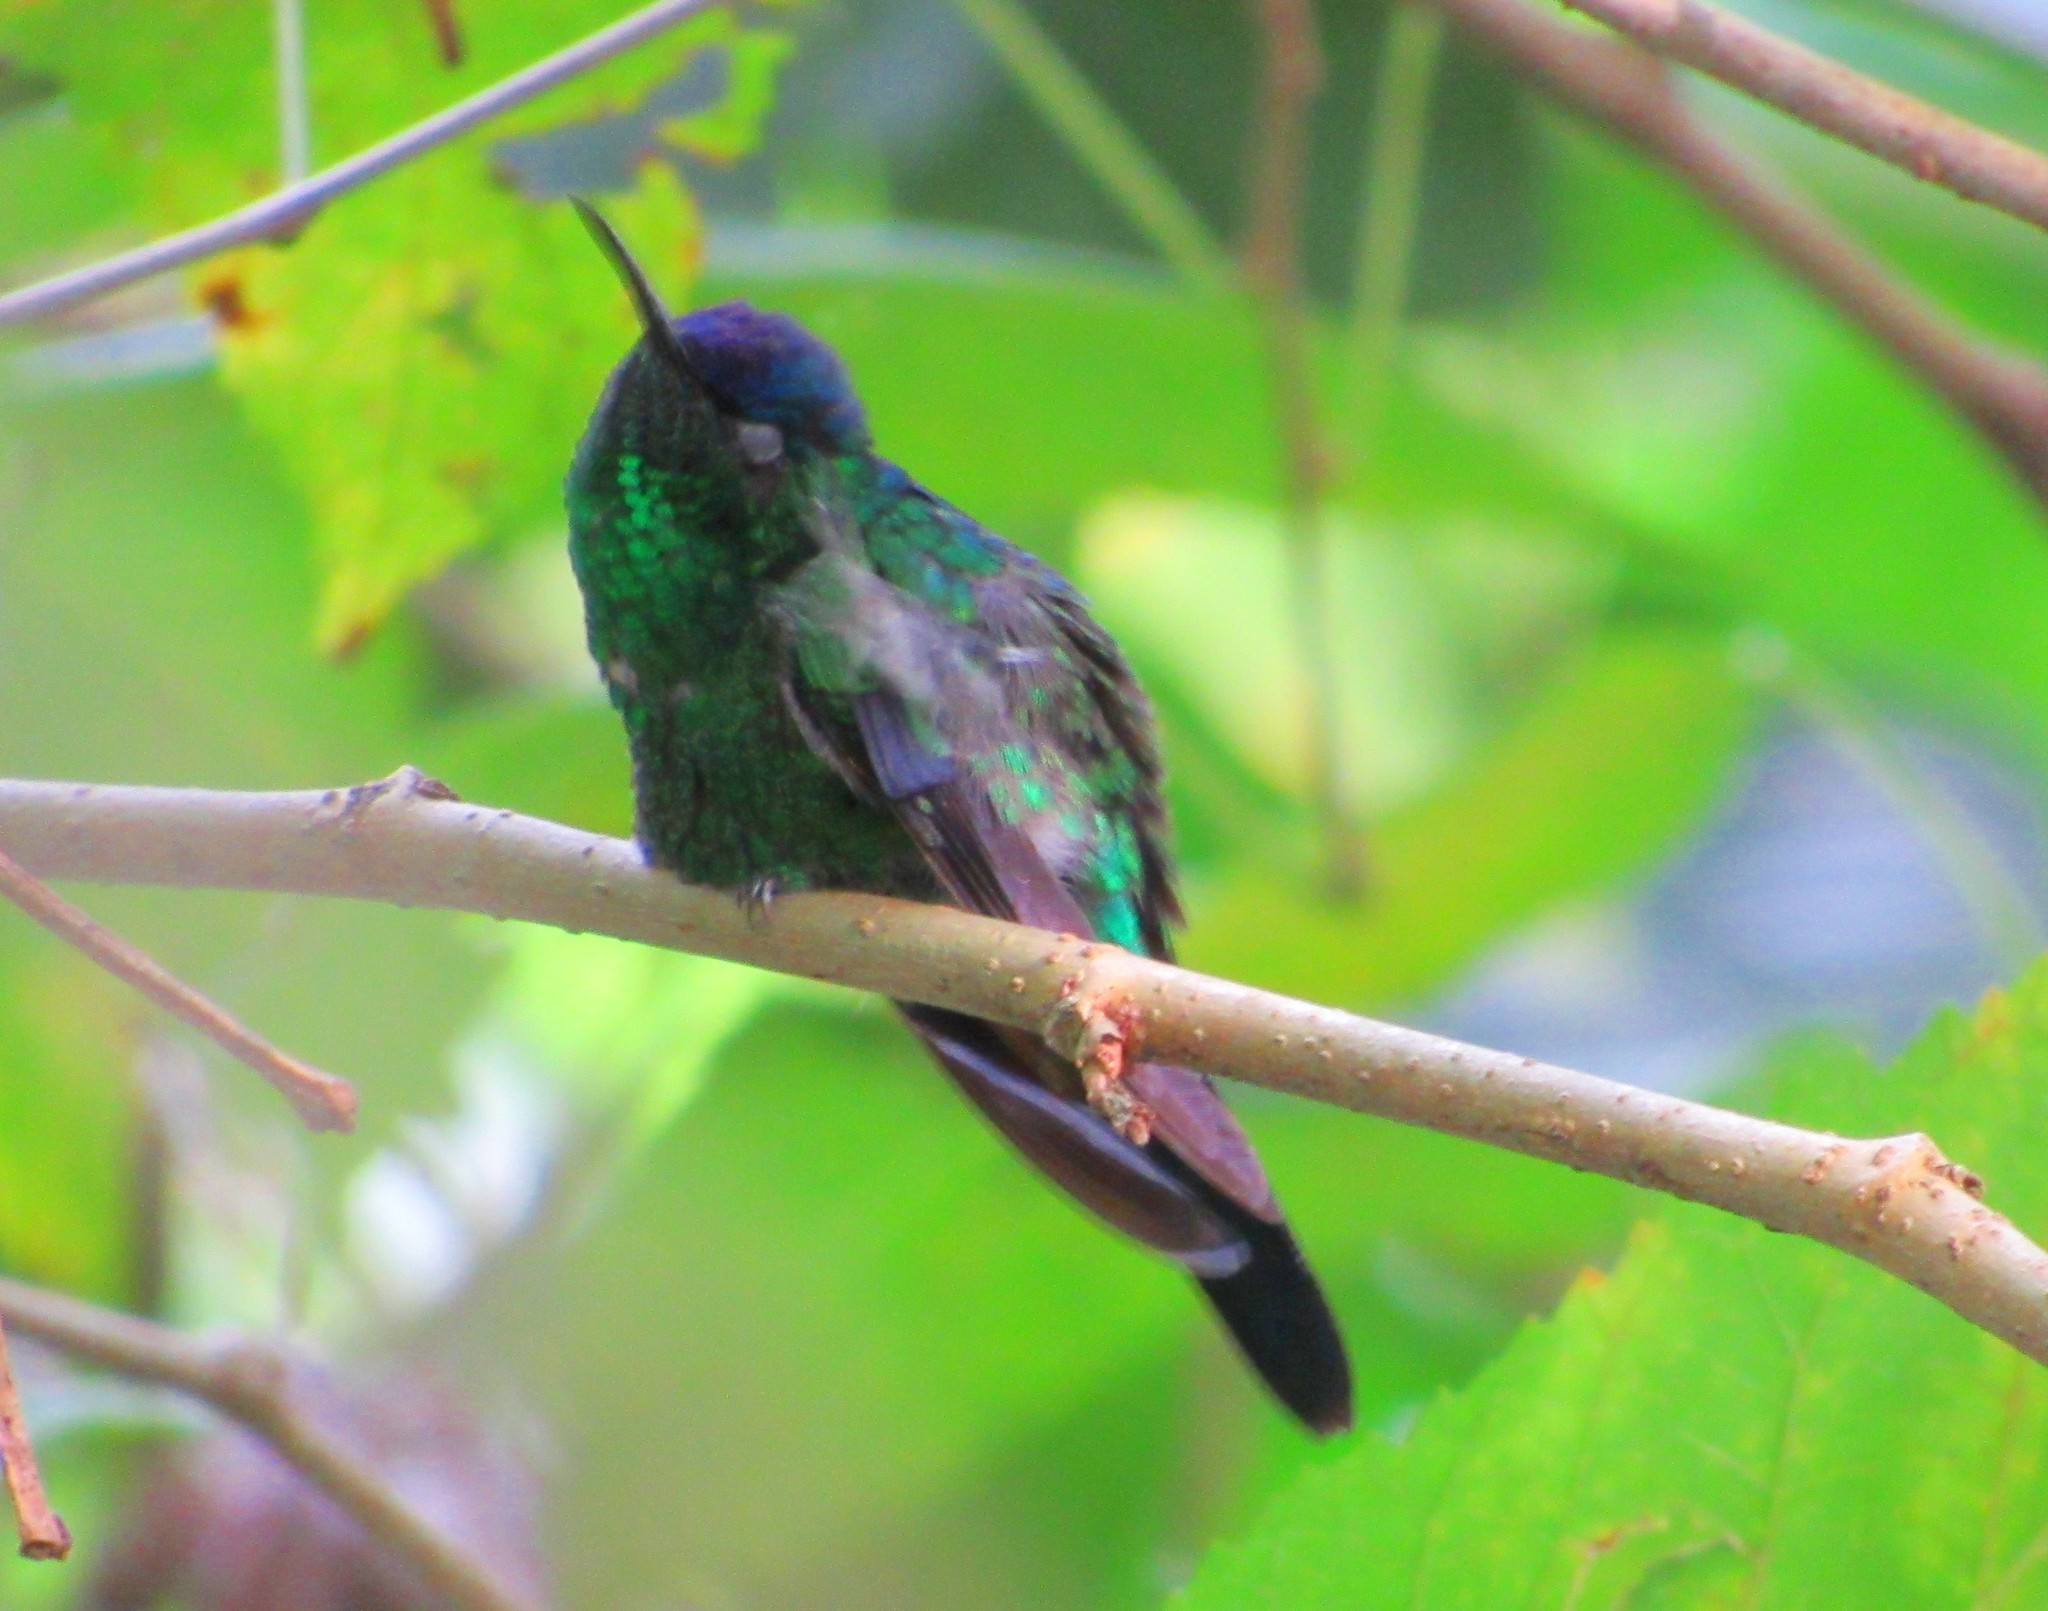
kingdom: Animalia
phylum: Chordata
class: Aves
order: Apodiformes
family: Trochilidae
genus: Thalurania
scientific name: Thalurania glaucopis
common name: Violet-capped woodnymph
